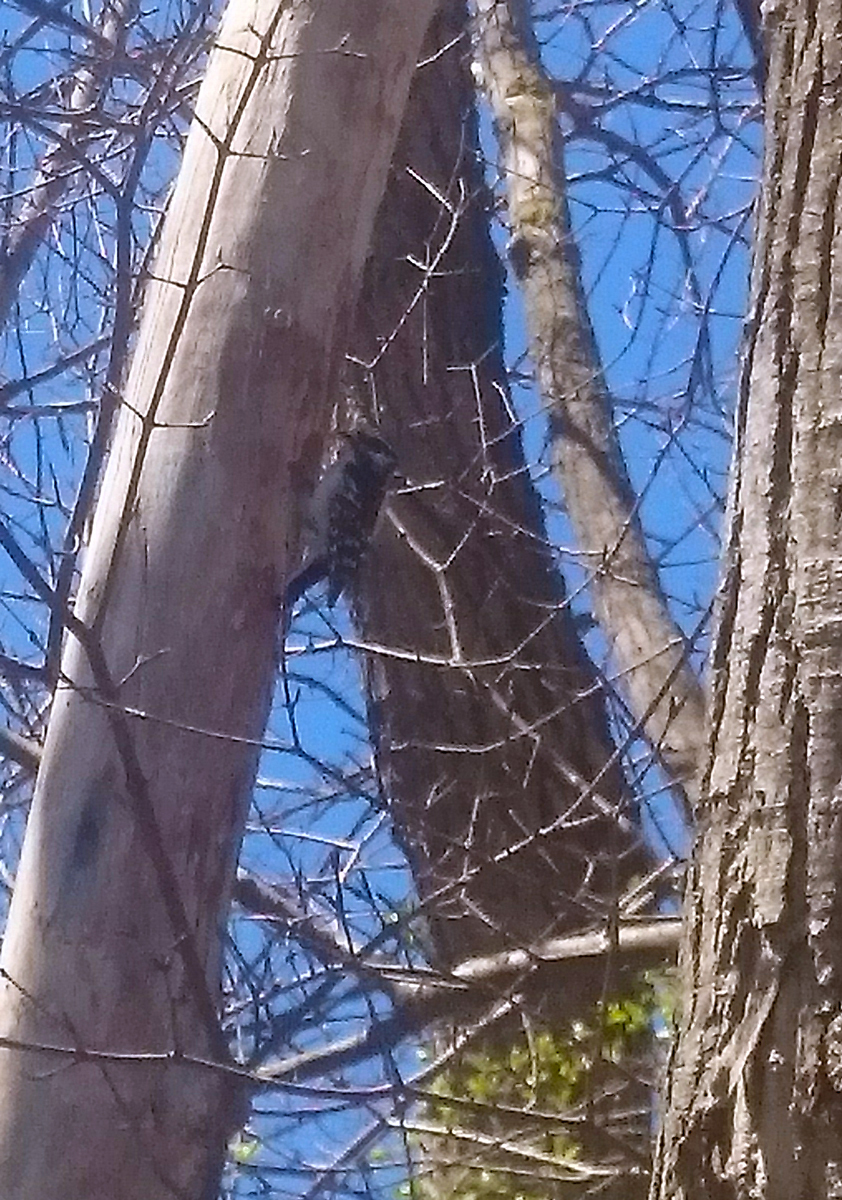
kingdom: Animalia
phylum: Chordata
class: Aves
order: Piciformes
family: Picidae
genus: Dryobates
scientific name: Dryobates pubescens
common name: Downy woodpecker
